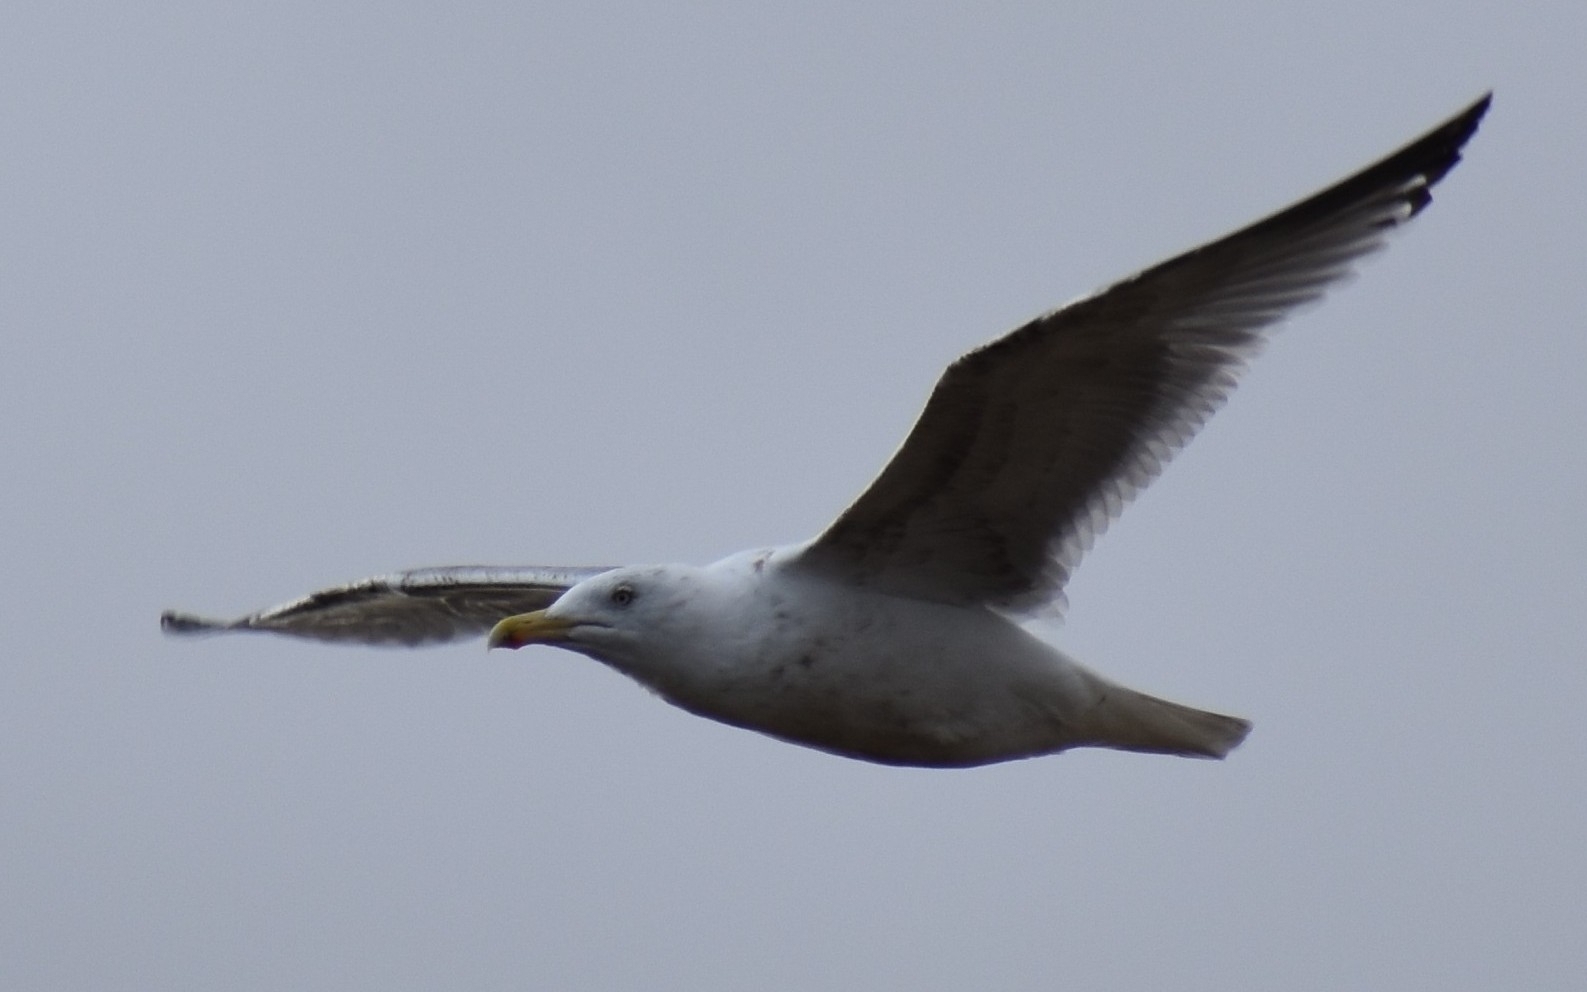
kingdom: Animalia
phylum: Chordata
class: Aves
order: Charadriiformes
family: Laridae
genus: Larus
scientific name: Larus argentatus
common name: Herring gull
